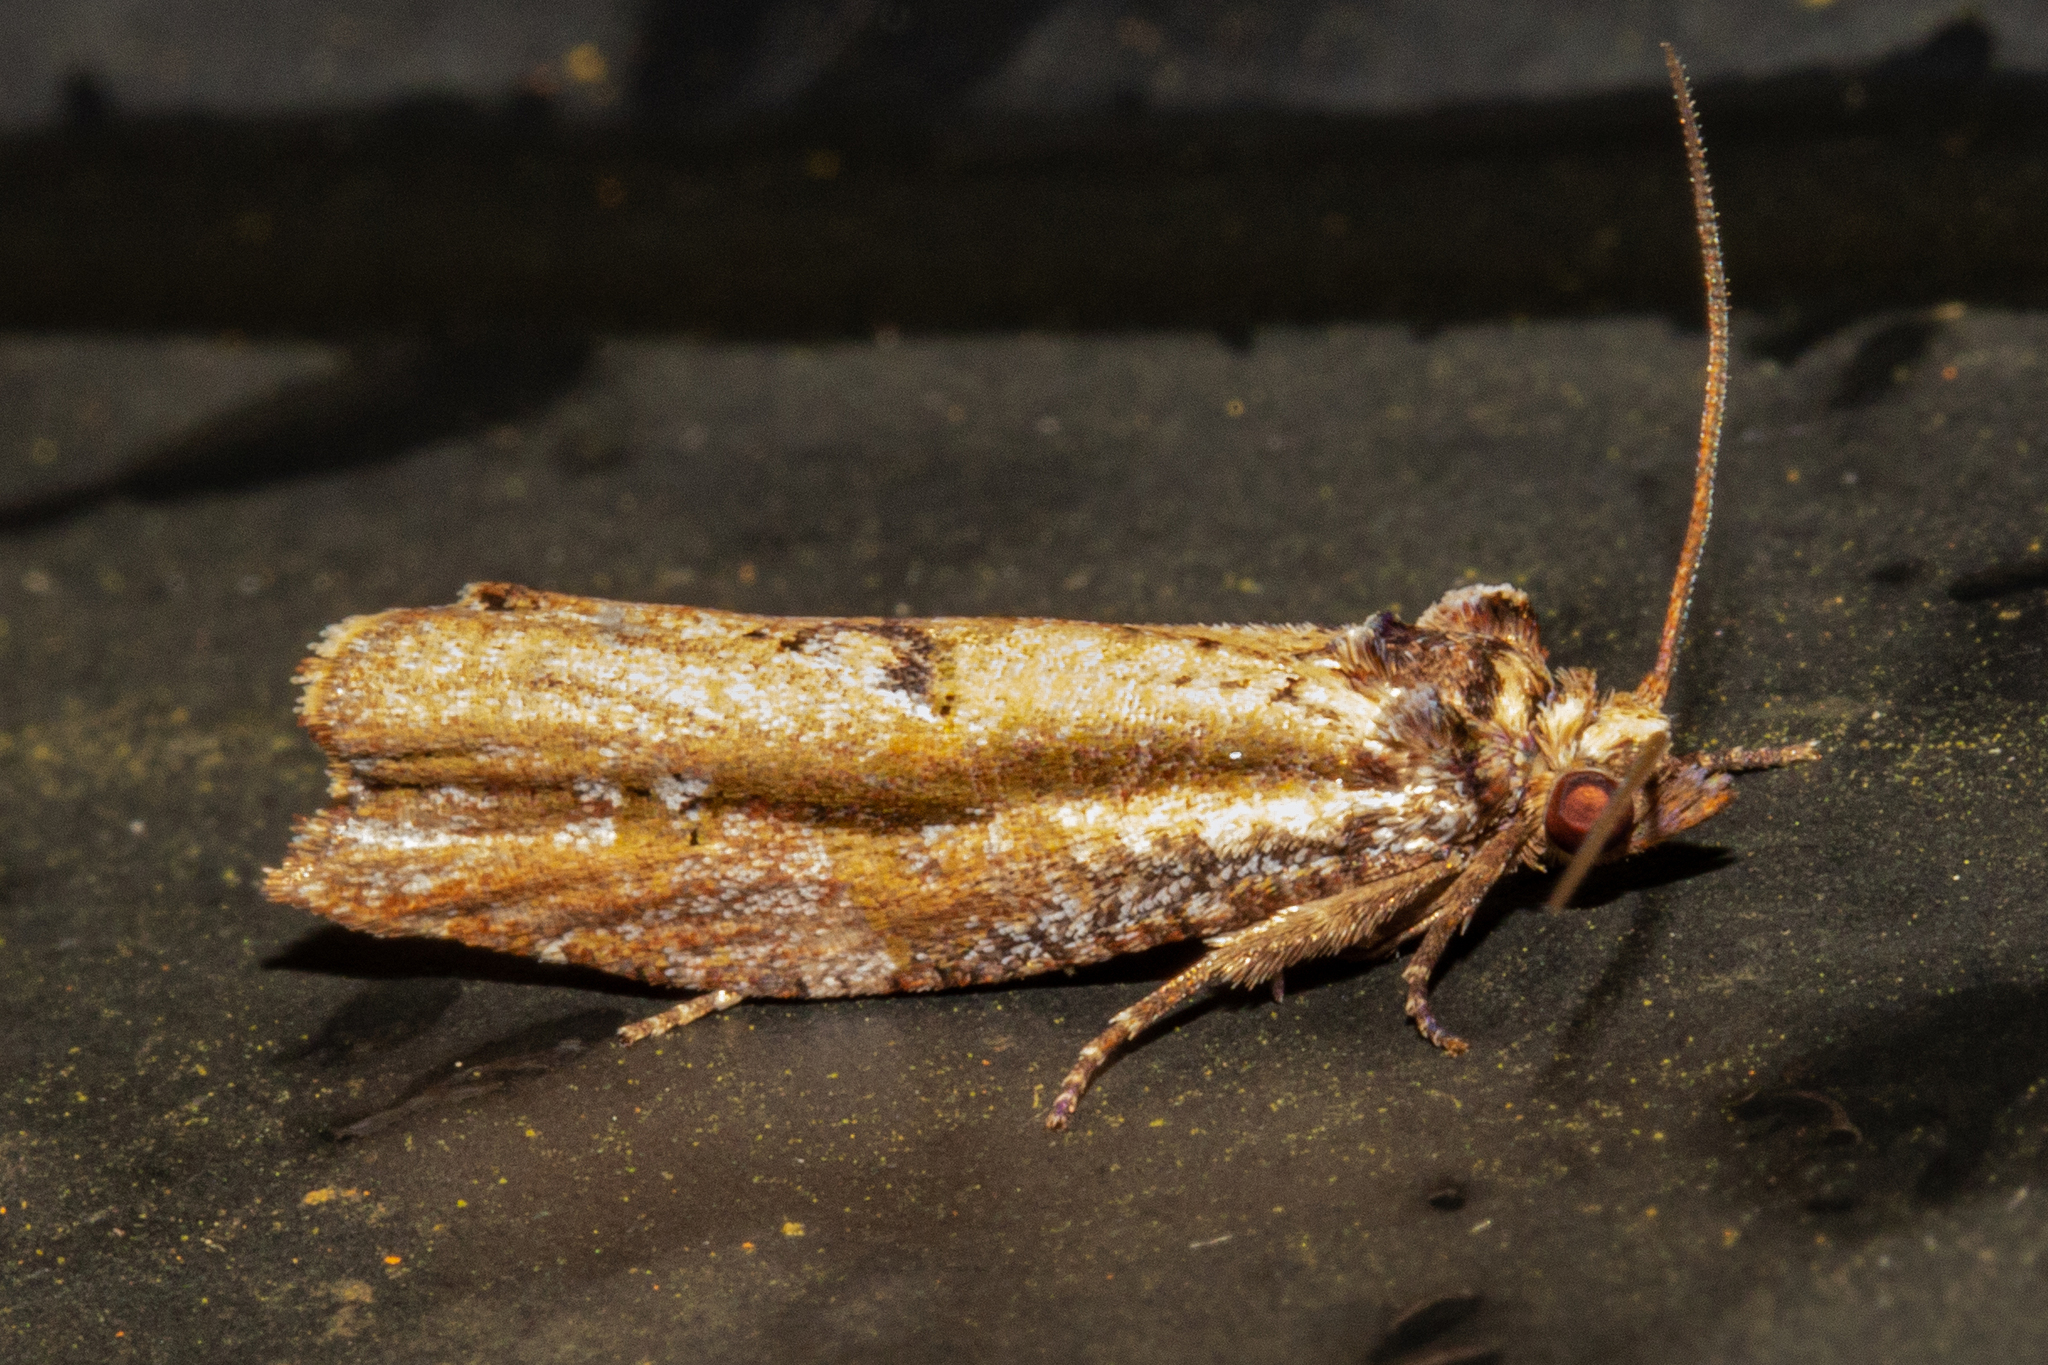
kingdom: Animalia
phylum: Arthropoda
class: Insecta
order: Lepidoptera
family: Tortricidae
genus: Epalxiphora
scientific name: Epalxiphora axenana
